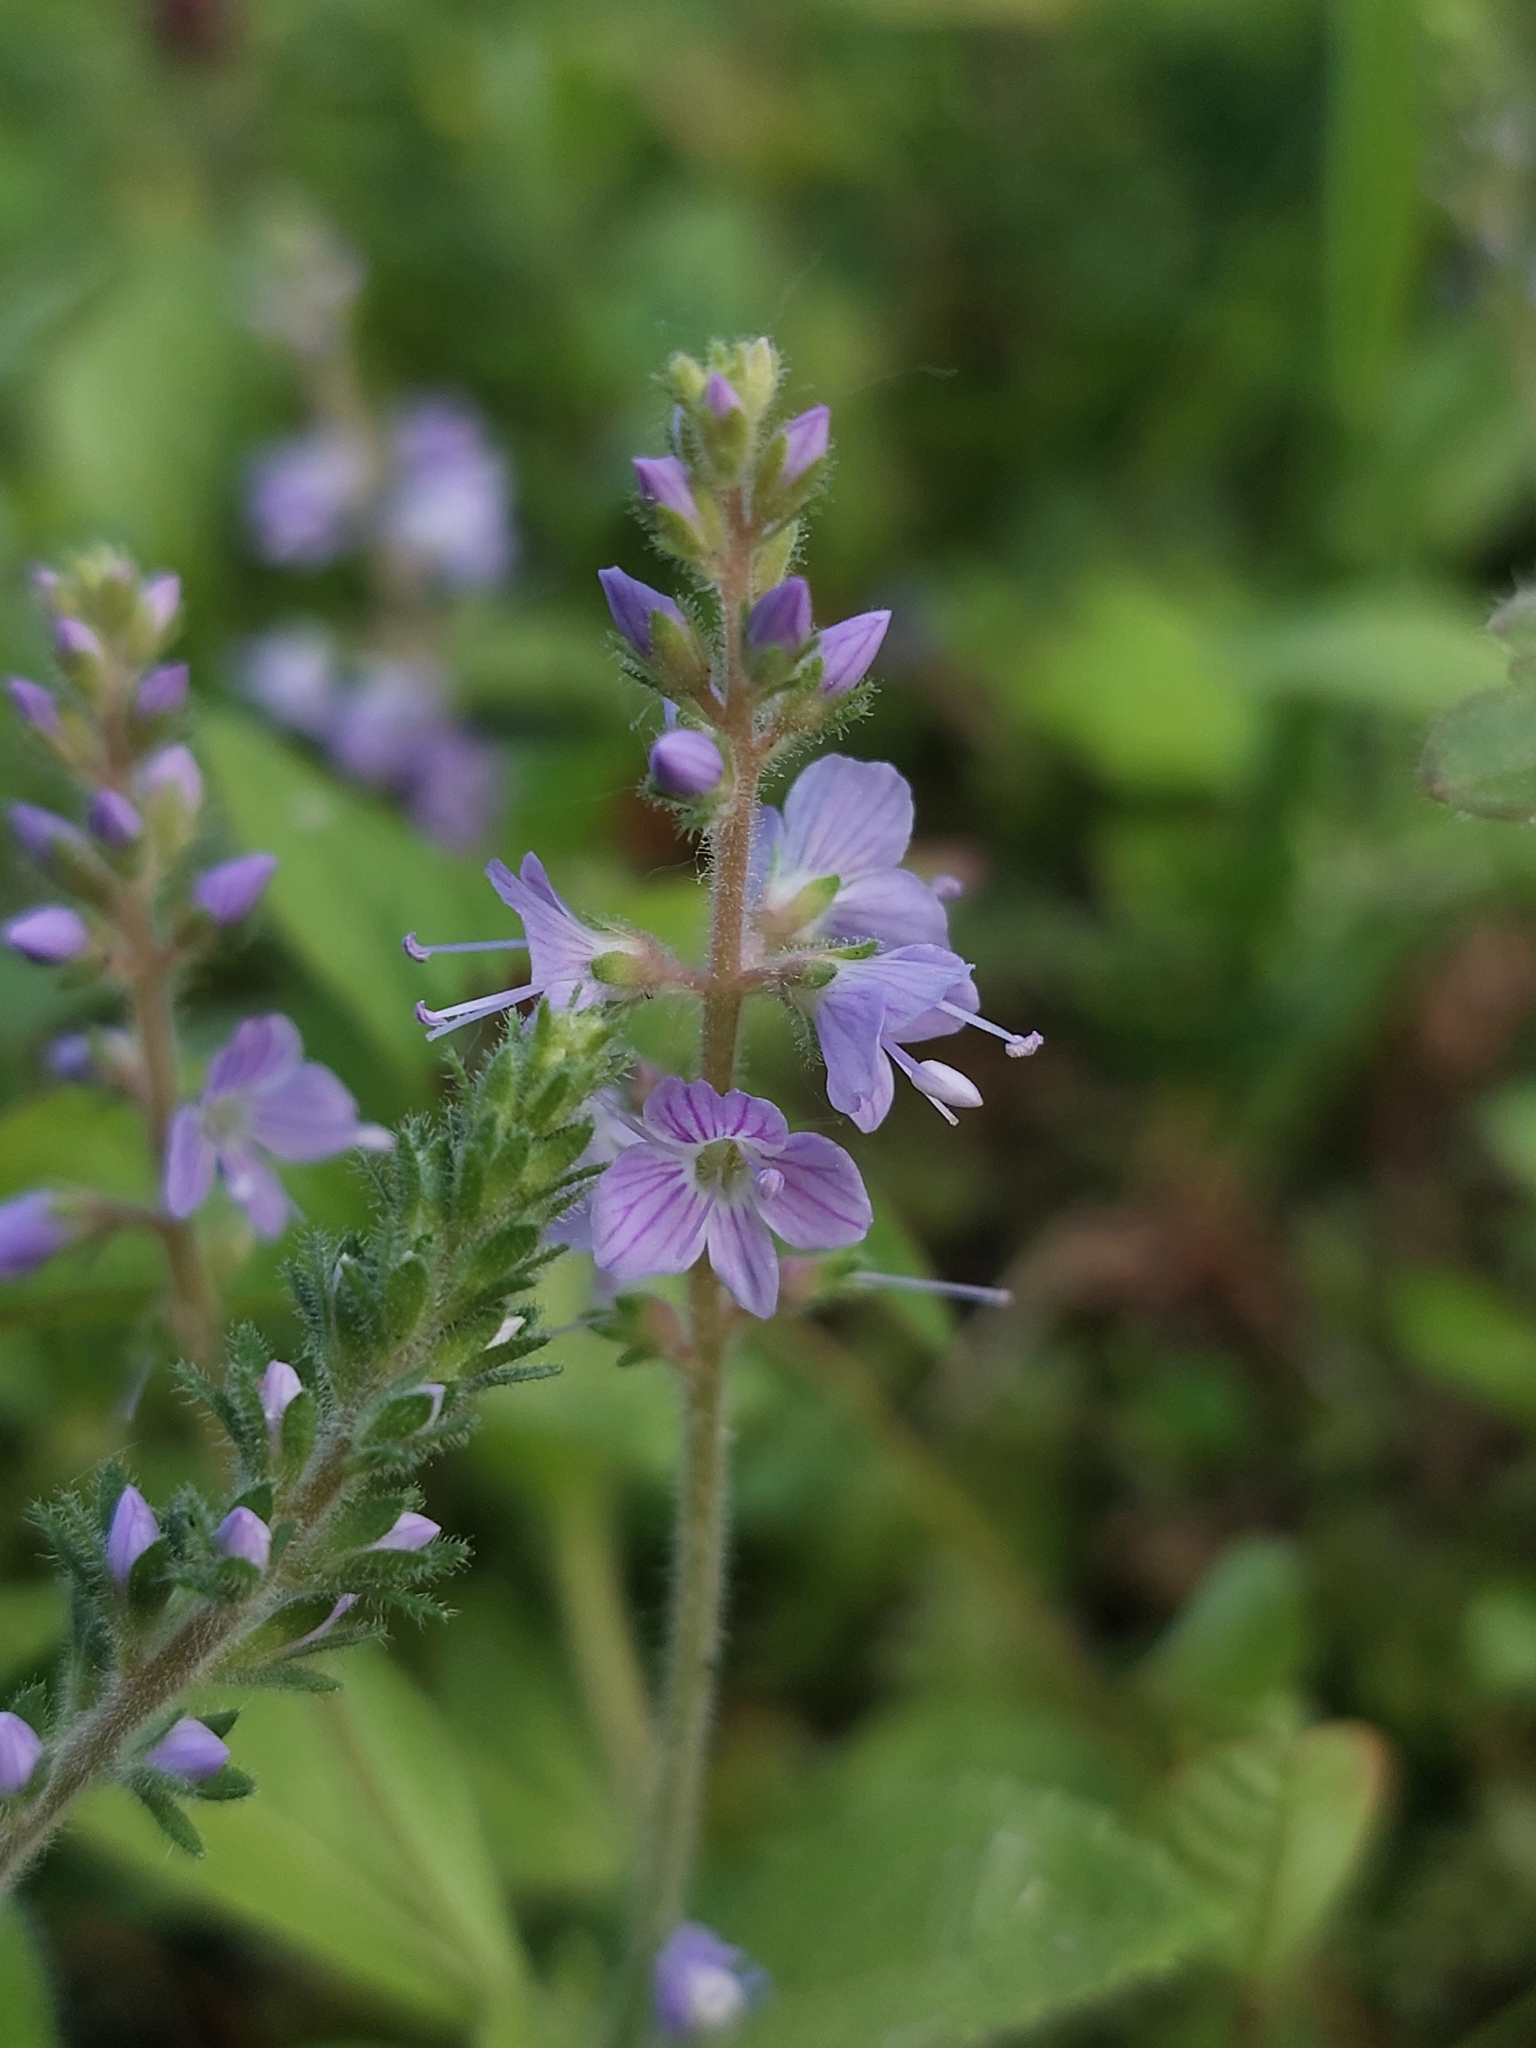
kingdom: Plantae
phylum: Tracheophyta
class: Magnoliopsida
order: Lamiales
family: Plantaginaceae
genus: Veronica
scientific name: Veronica officinalis
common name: Common speedwell
